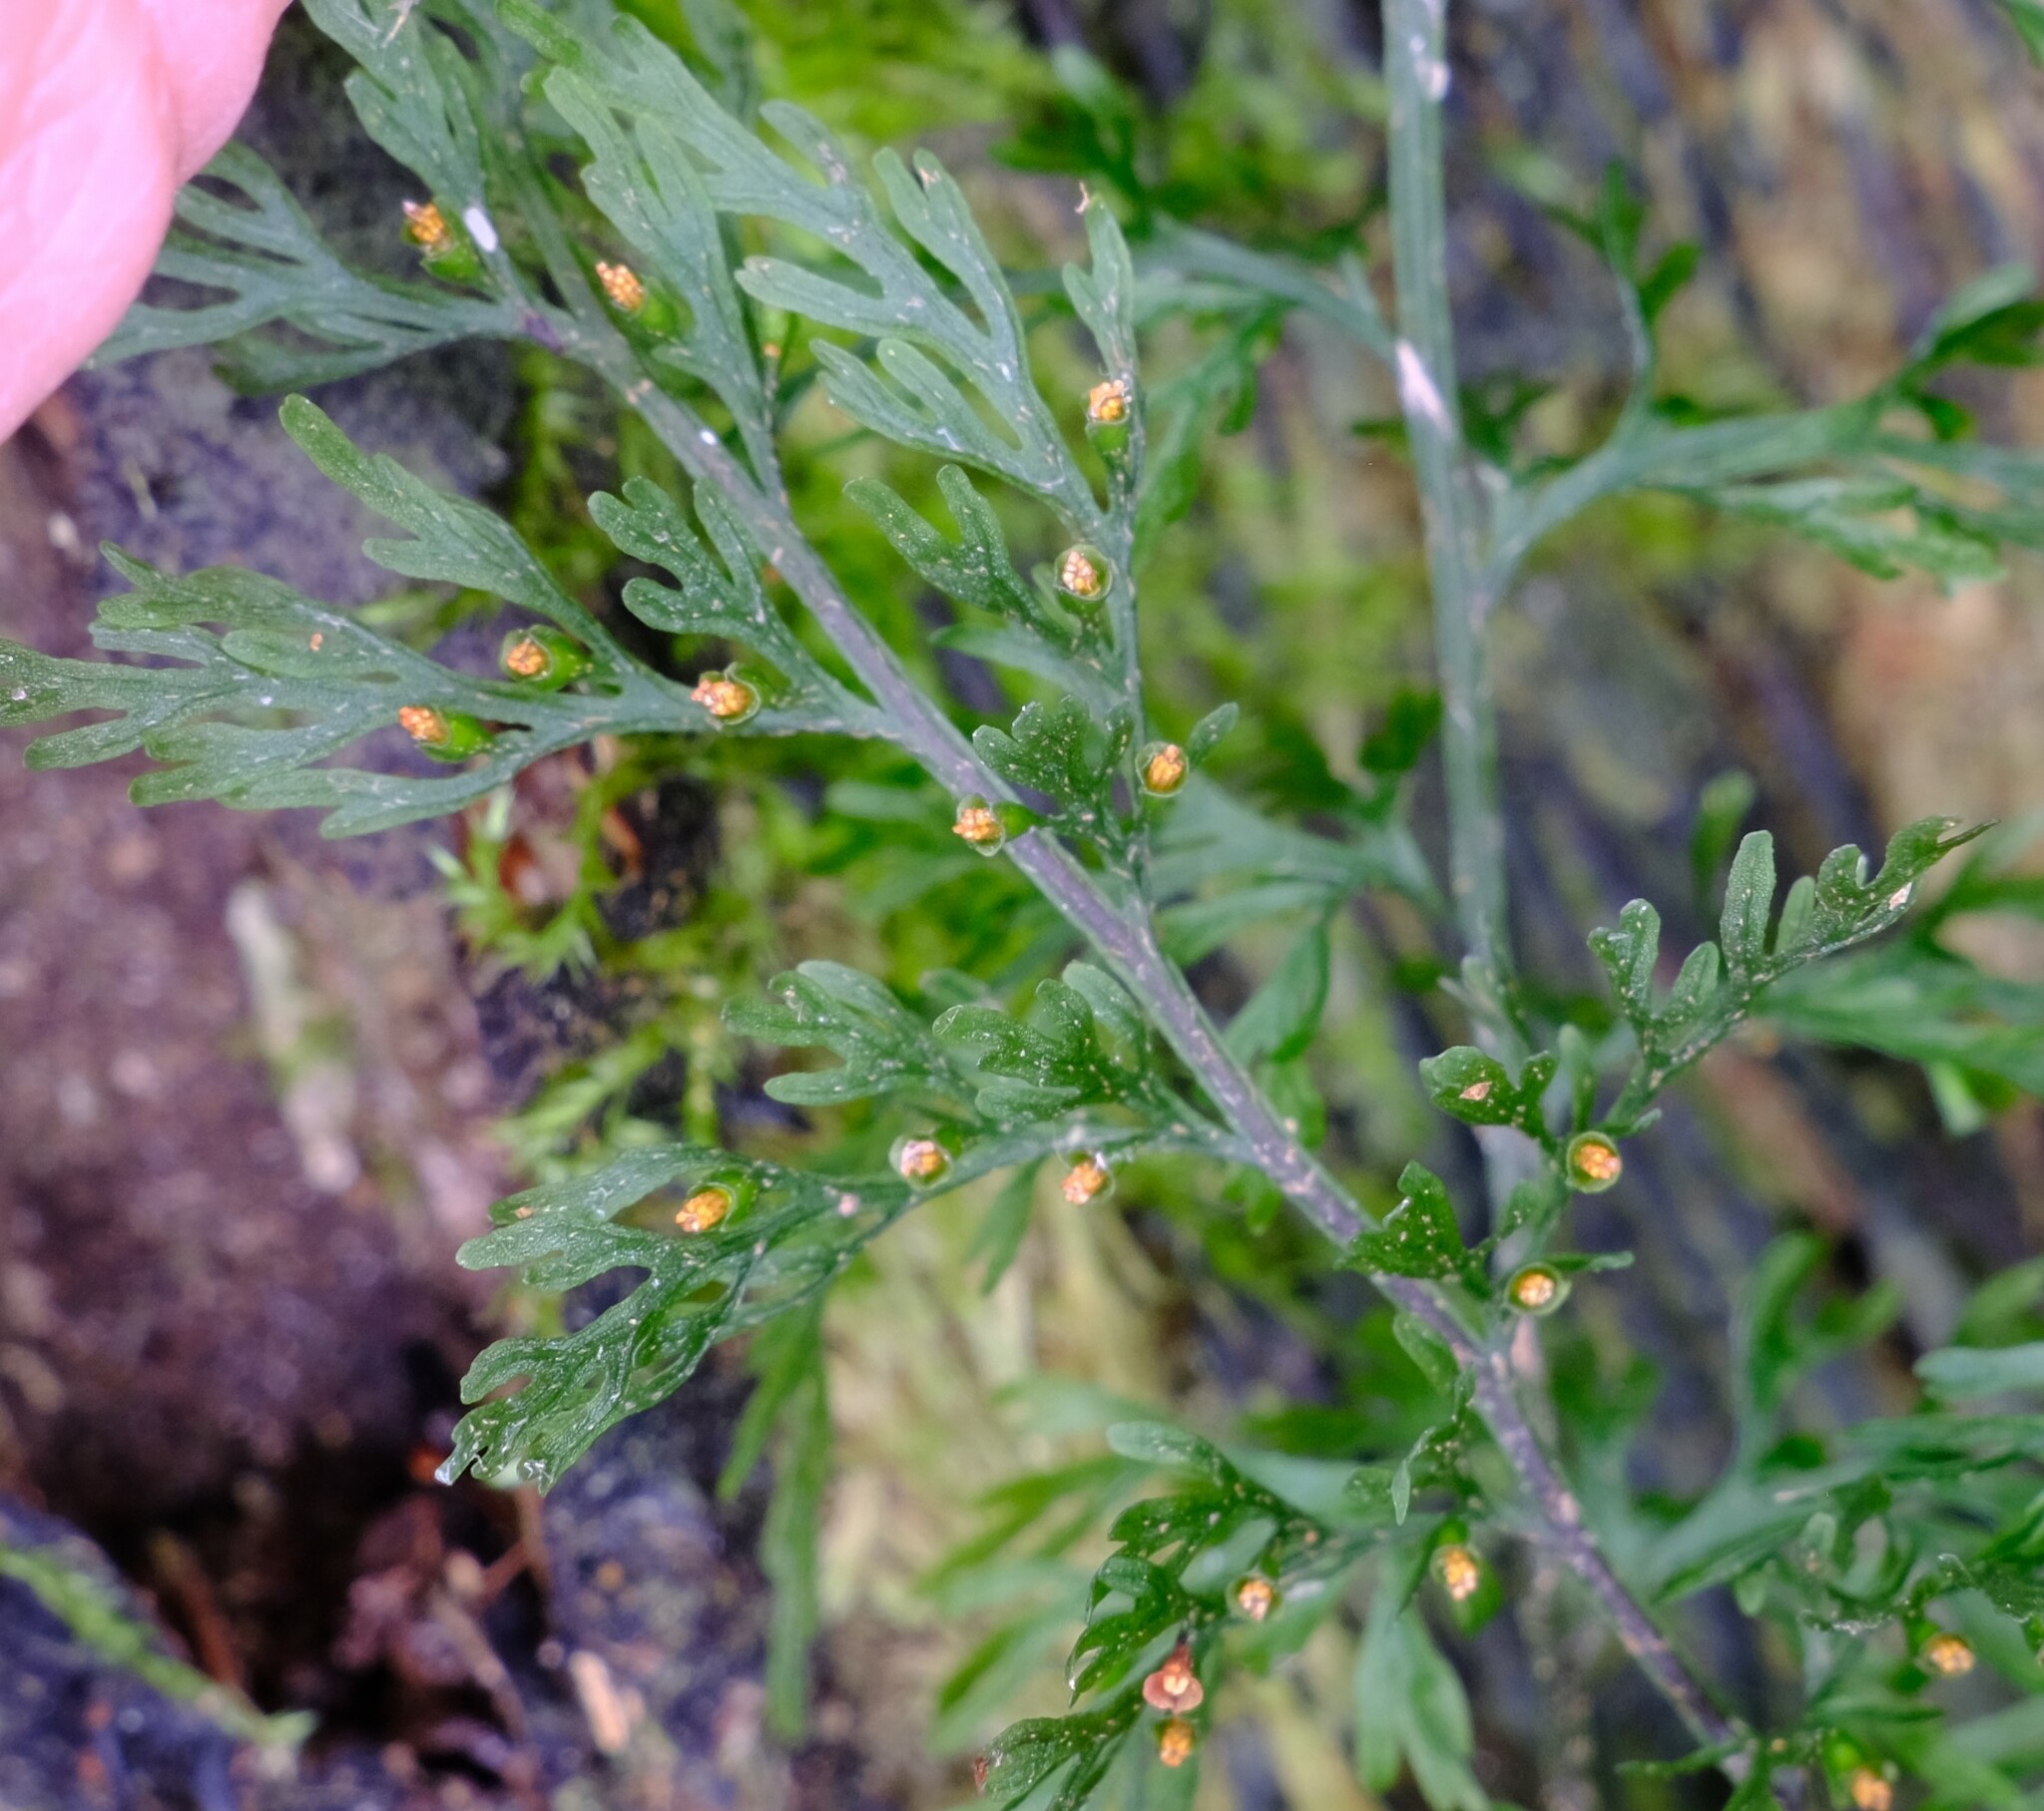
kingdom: Plantae
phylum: Tracheophyta
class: Polypodiopsida
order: Hymenophyllales
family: Hymenophyllaceae
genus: Abrodictyum
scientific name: Abrodictyum caudatum
